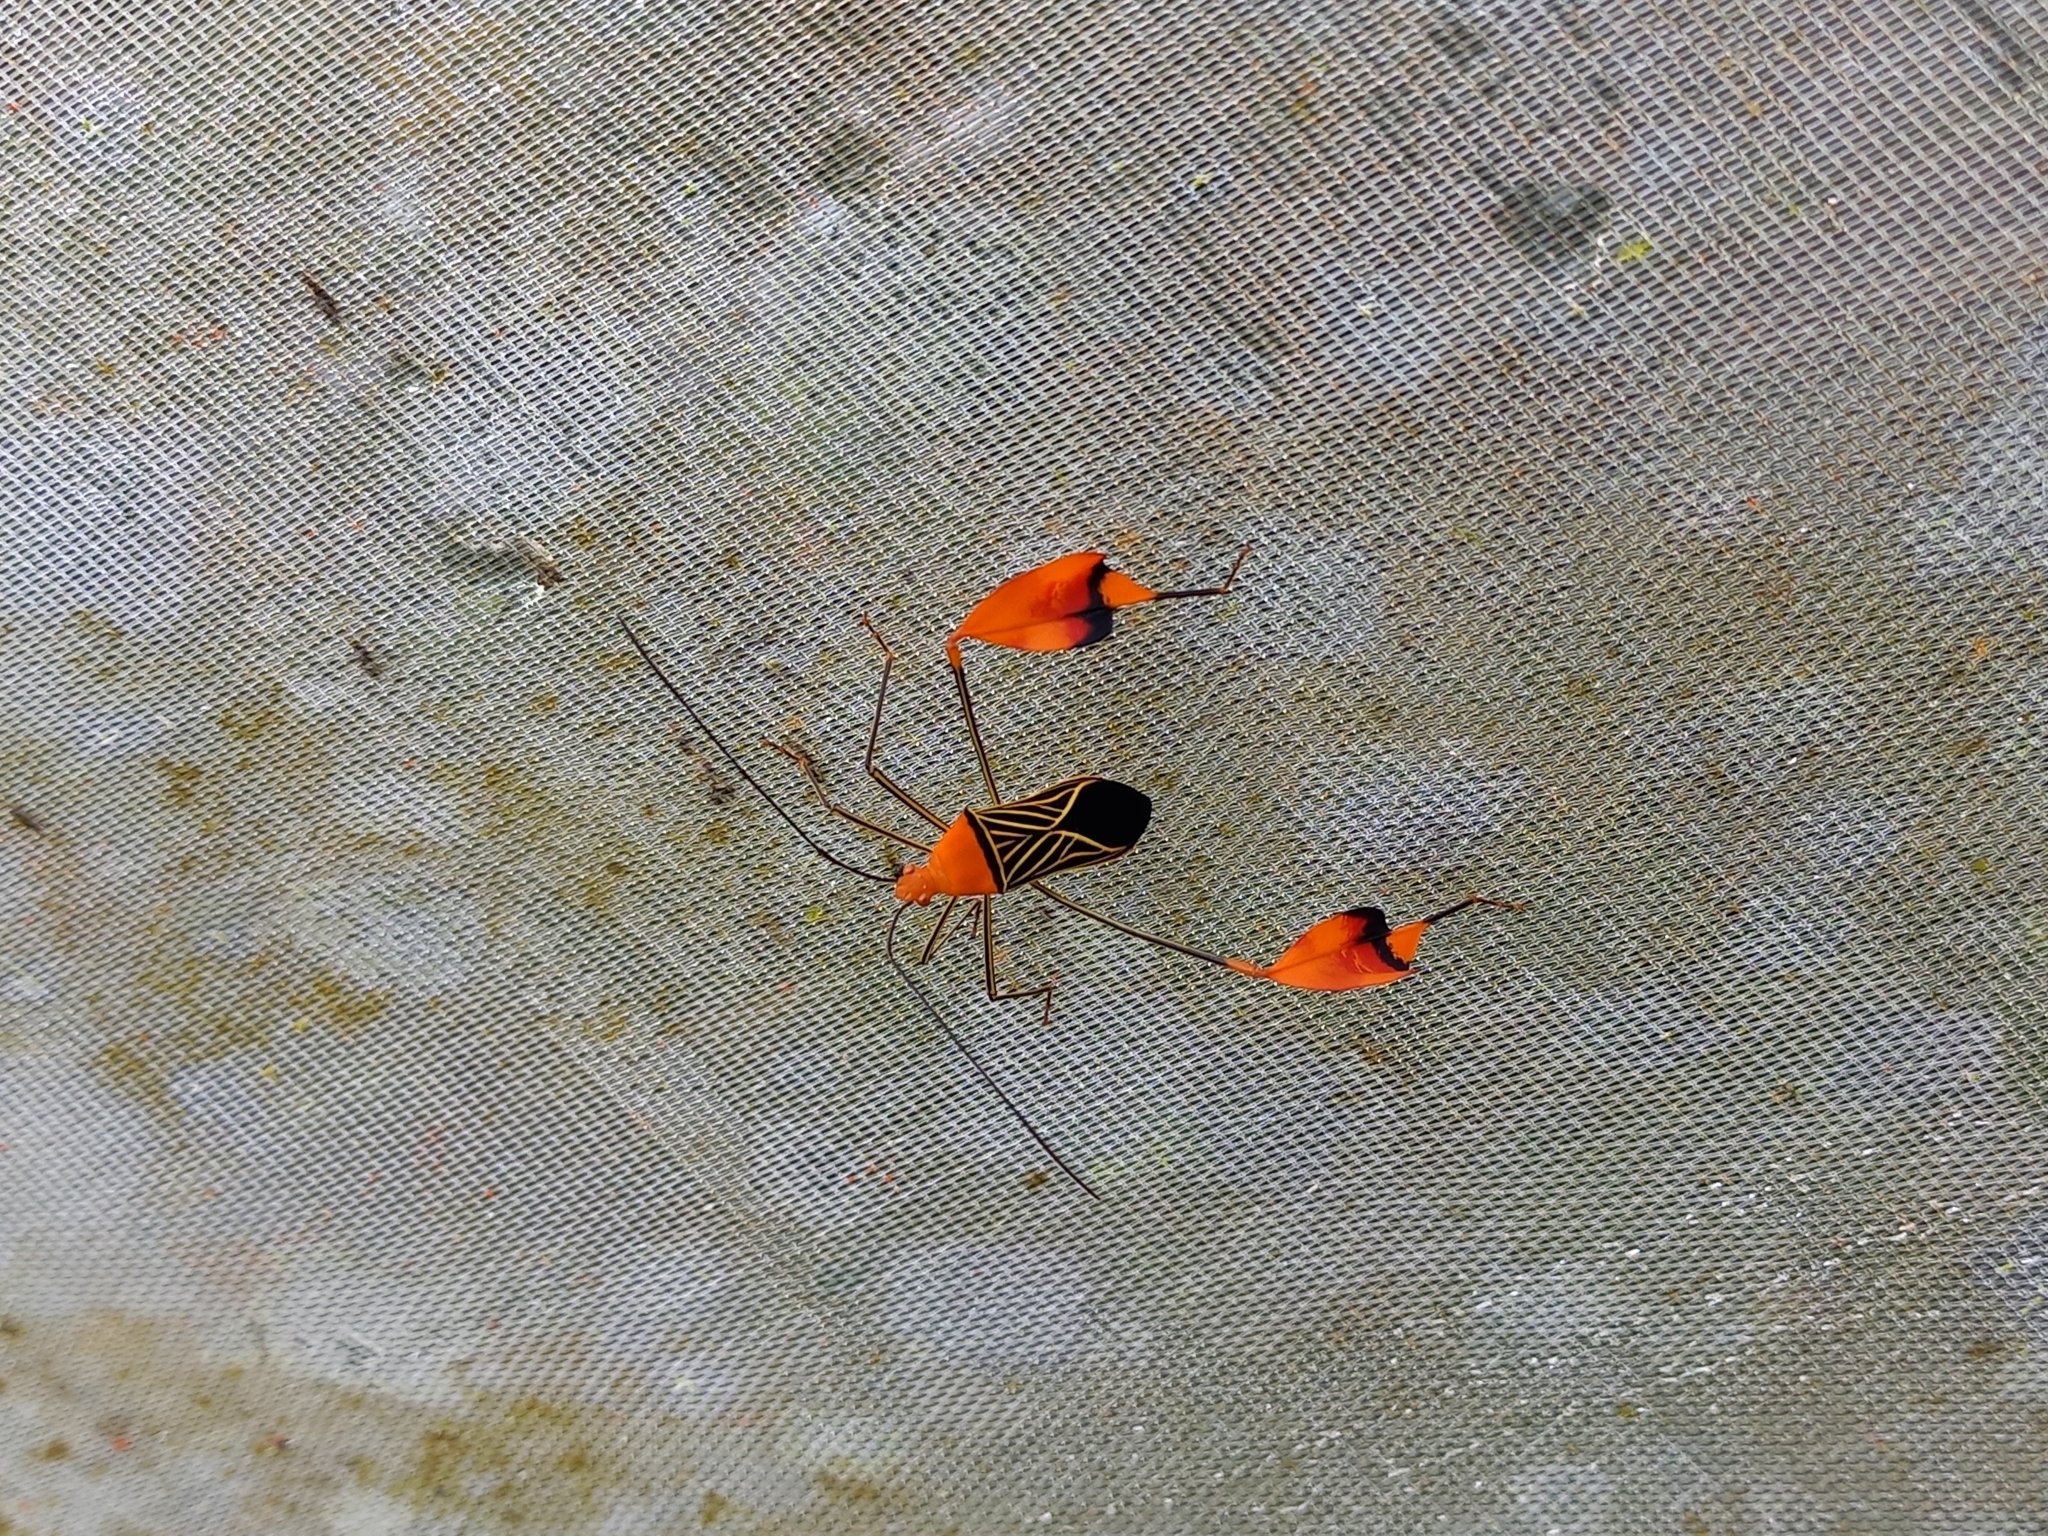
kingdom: Animalia
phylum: Arthropoda
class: Insecta
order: Hemiptera
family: Coreidae
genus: Bitta
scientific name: Bitta
